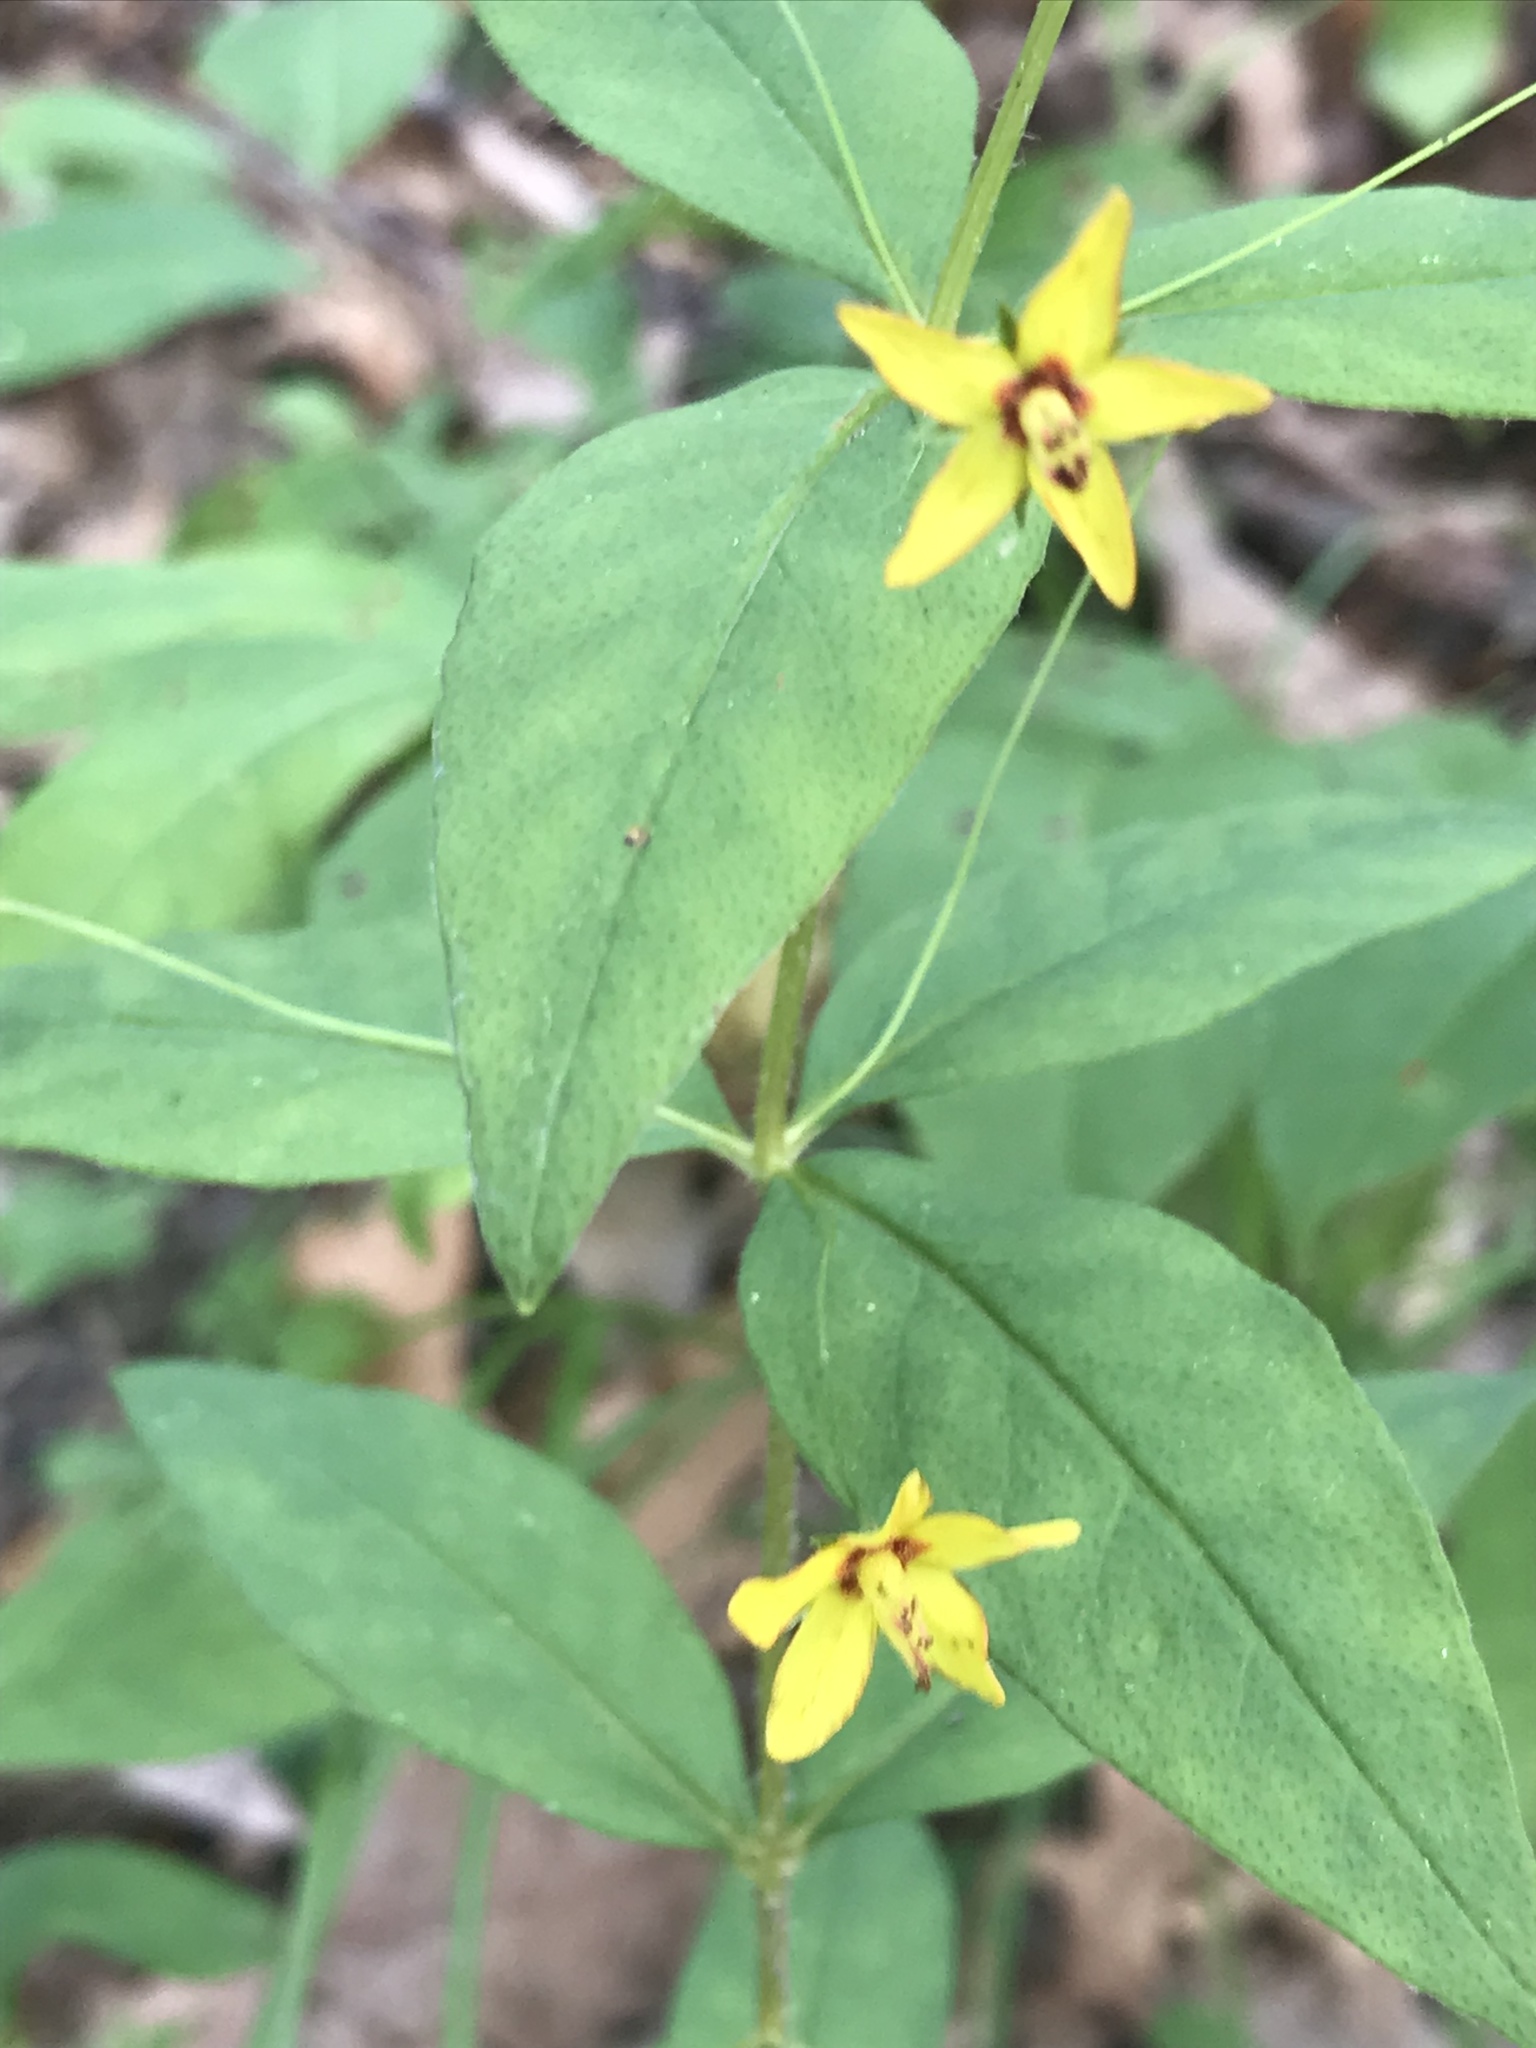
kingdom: Plantae
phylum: Tracheophyta
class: Magnoliopsida
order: Ericales
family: Primulaceae
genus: Lysimachia
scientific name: Lysimachia quadrifolia
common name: Whorled loosestrife
